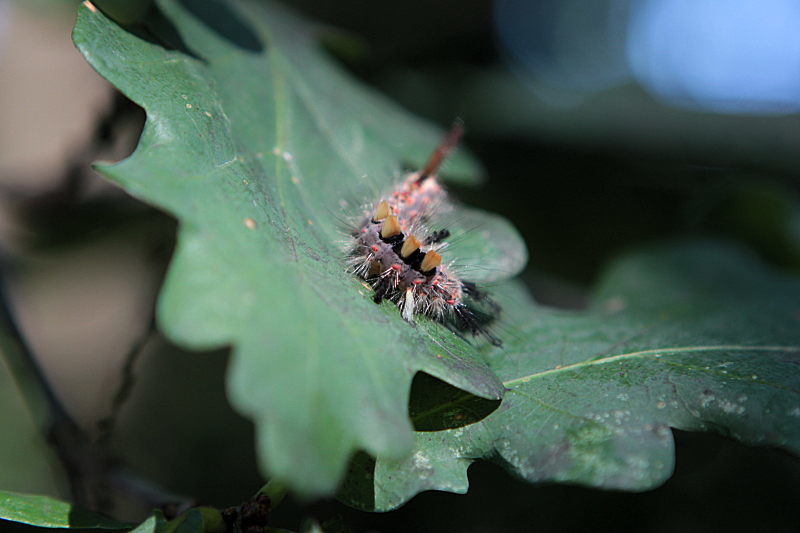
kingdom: Animalia
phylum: Arthropoda
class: Insecta
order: Lepidoptera
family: Erebidae
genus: Orgyia
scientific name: Orgyia antiqua
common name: Vapourer
